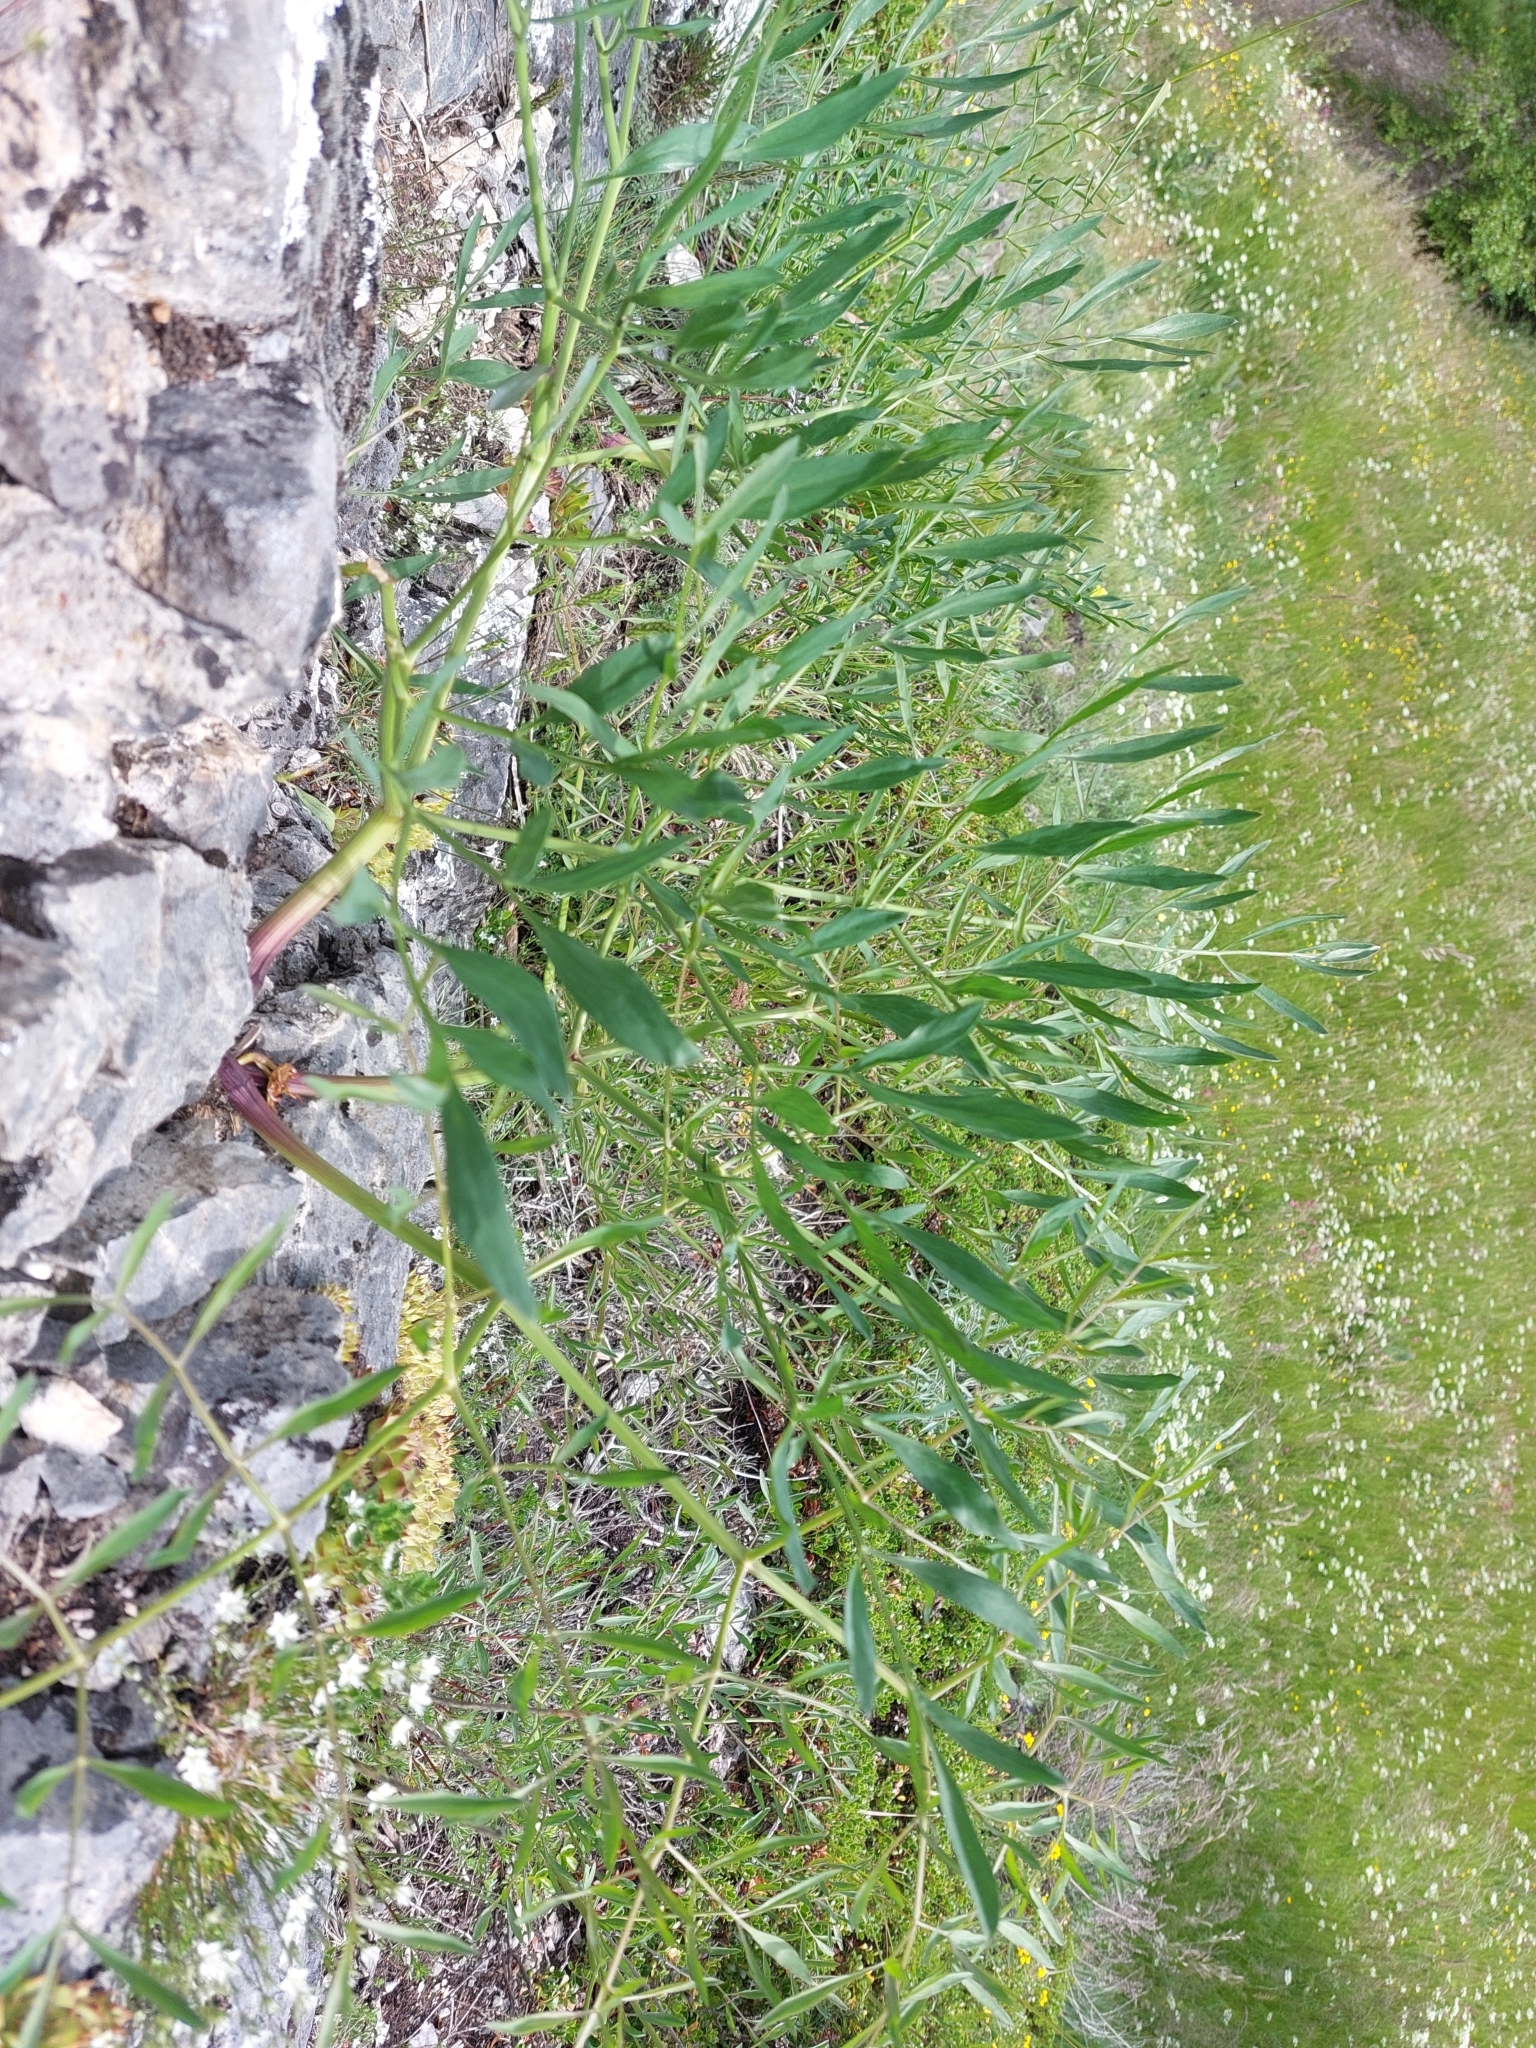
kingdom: Plantae
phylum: Tracheophyta
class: Magnoliopsida
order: Apiales
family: Apiaceae
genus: Siler
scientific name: Siler montanum
